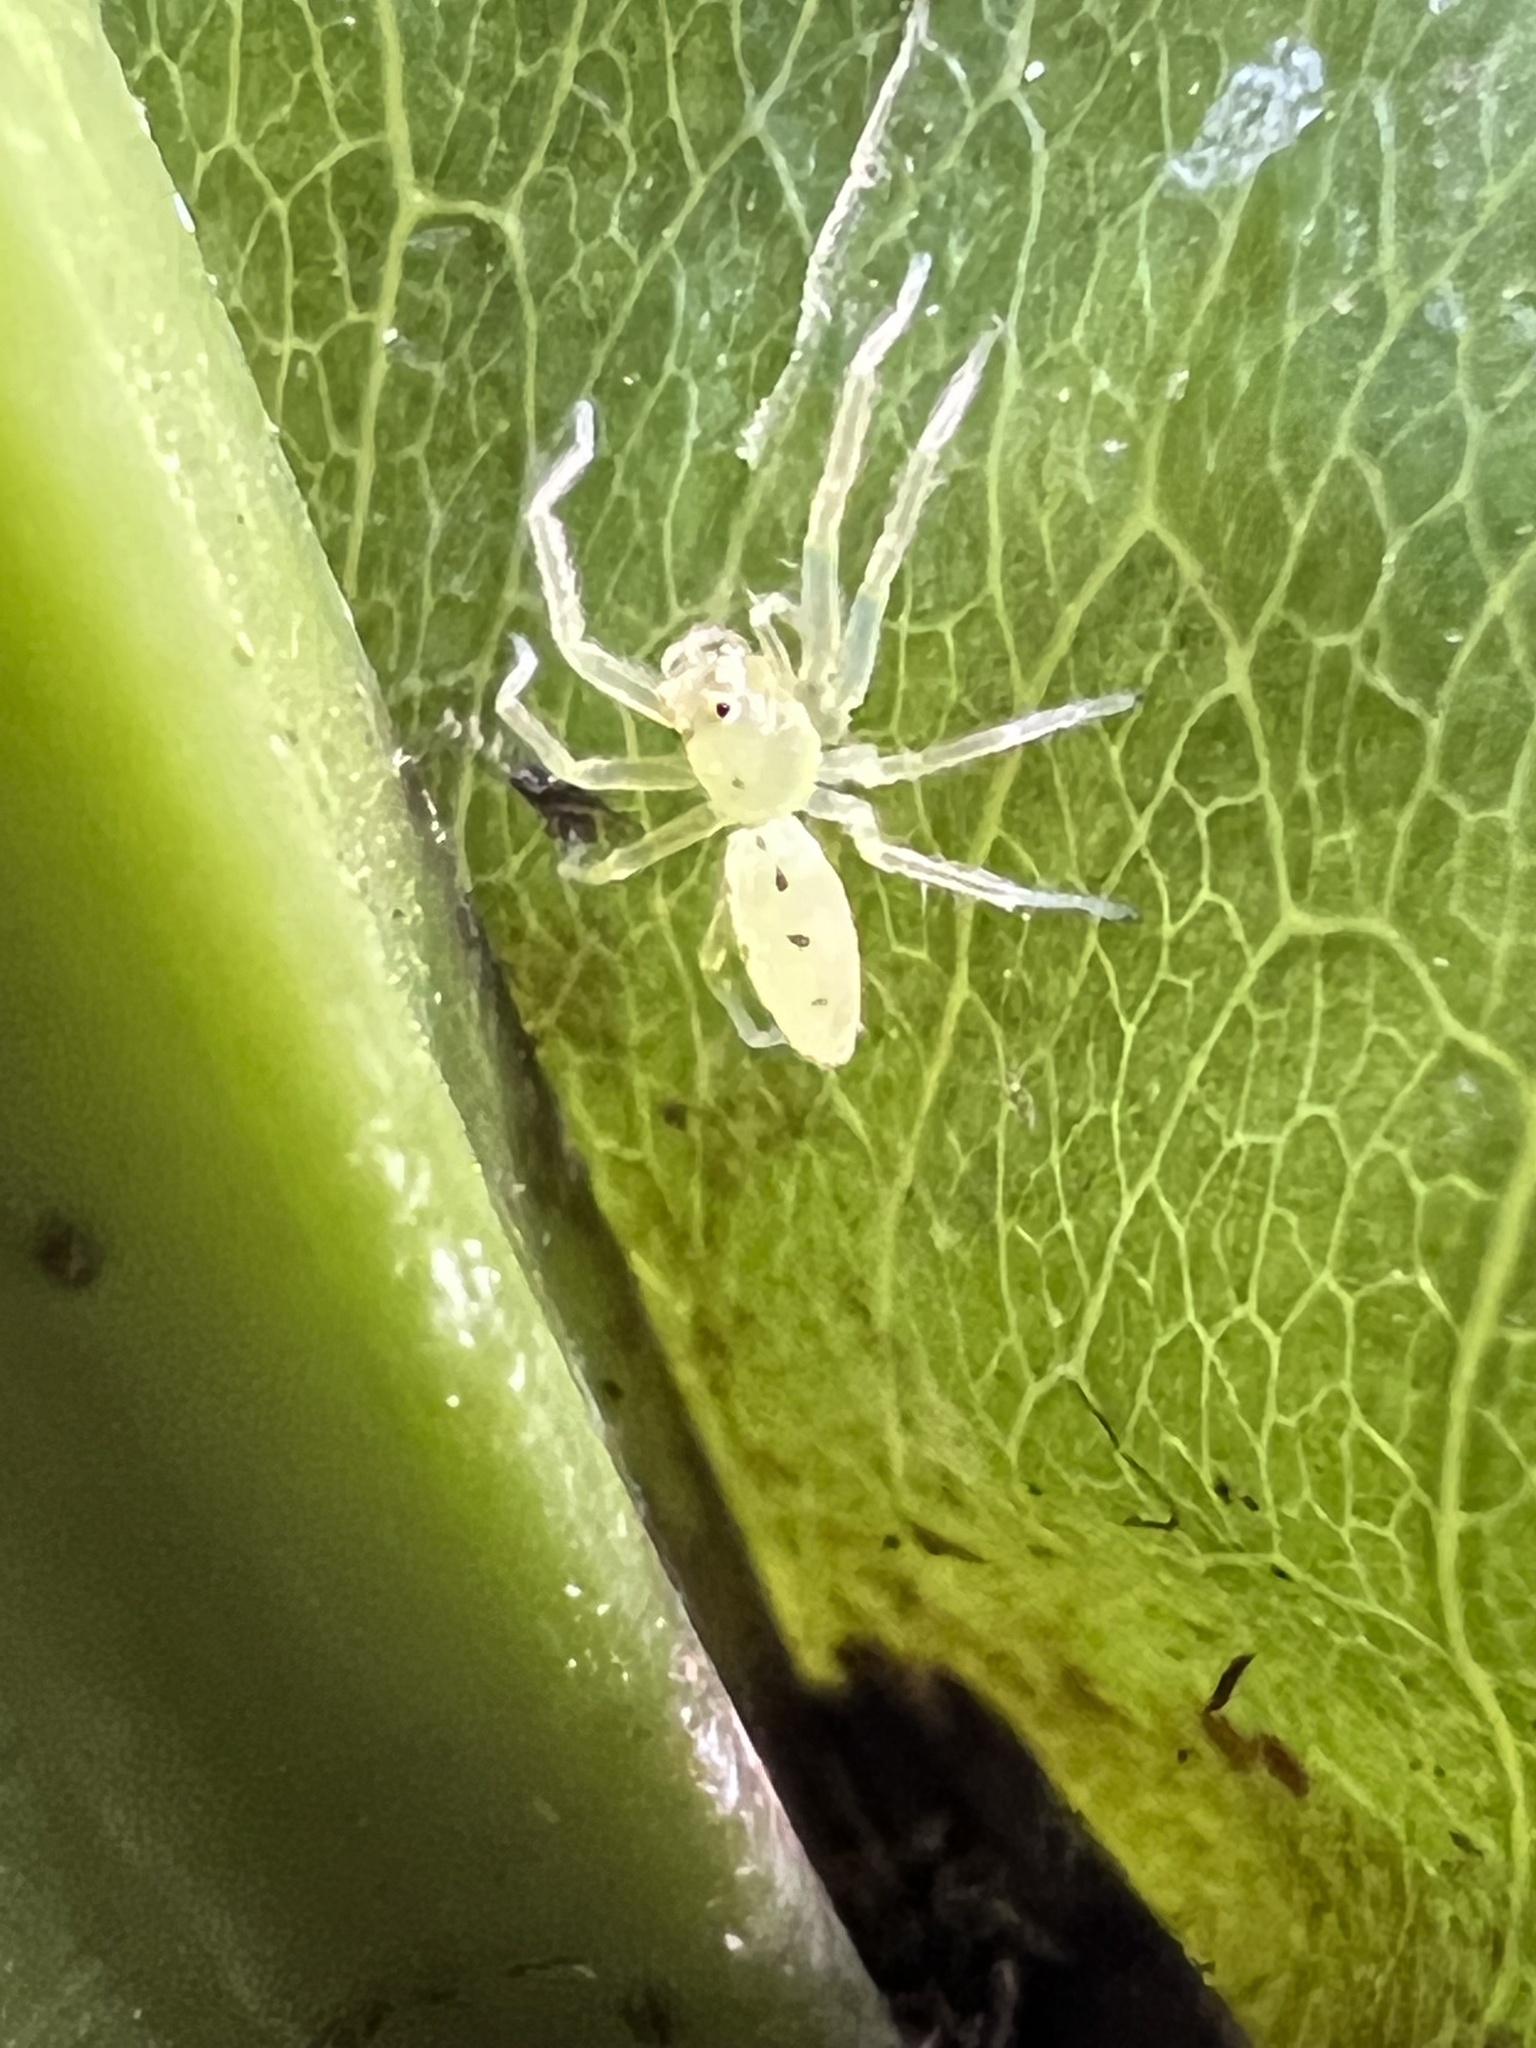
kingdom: Animalia
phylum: Arthropoda
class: Arachnida
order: Araneae
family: Salticidae
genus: Lyssomanes
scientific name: Lyssomanes viridis
